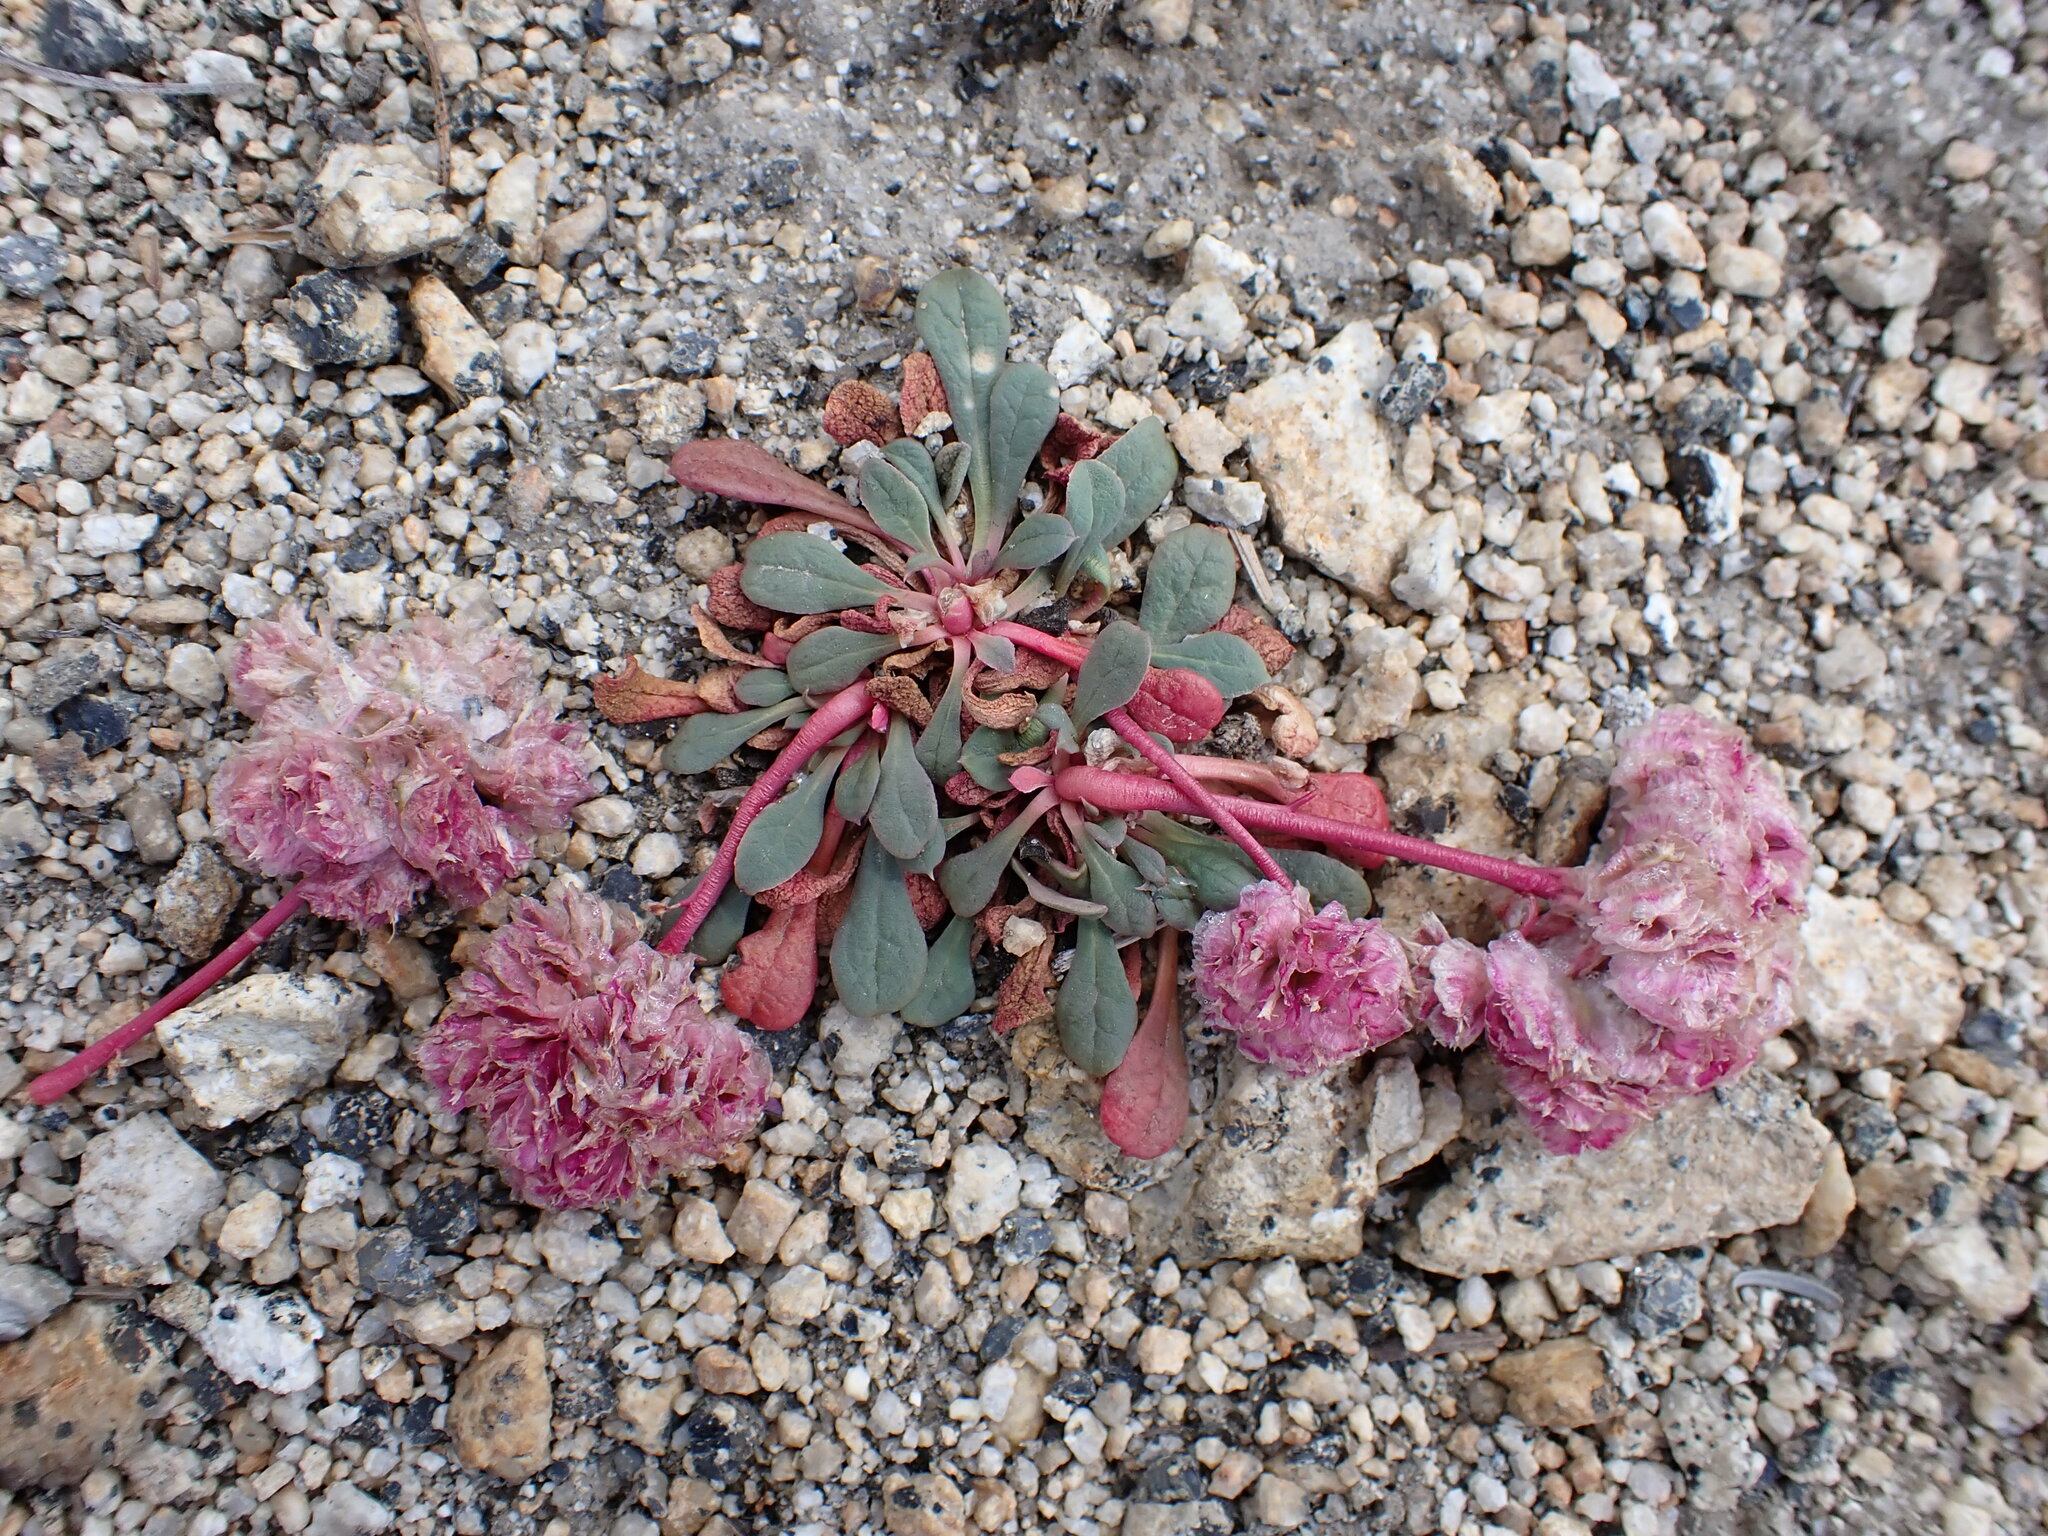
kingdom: Plantae
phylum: Tracheophyta
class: Magnoliopsida
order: Caryophyllales
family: Montiaceae
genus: Calyptridium
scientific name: Calyptridium umbellatum
